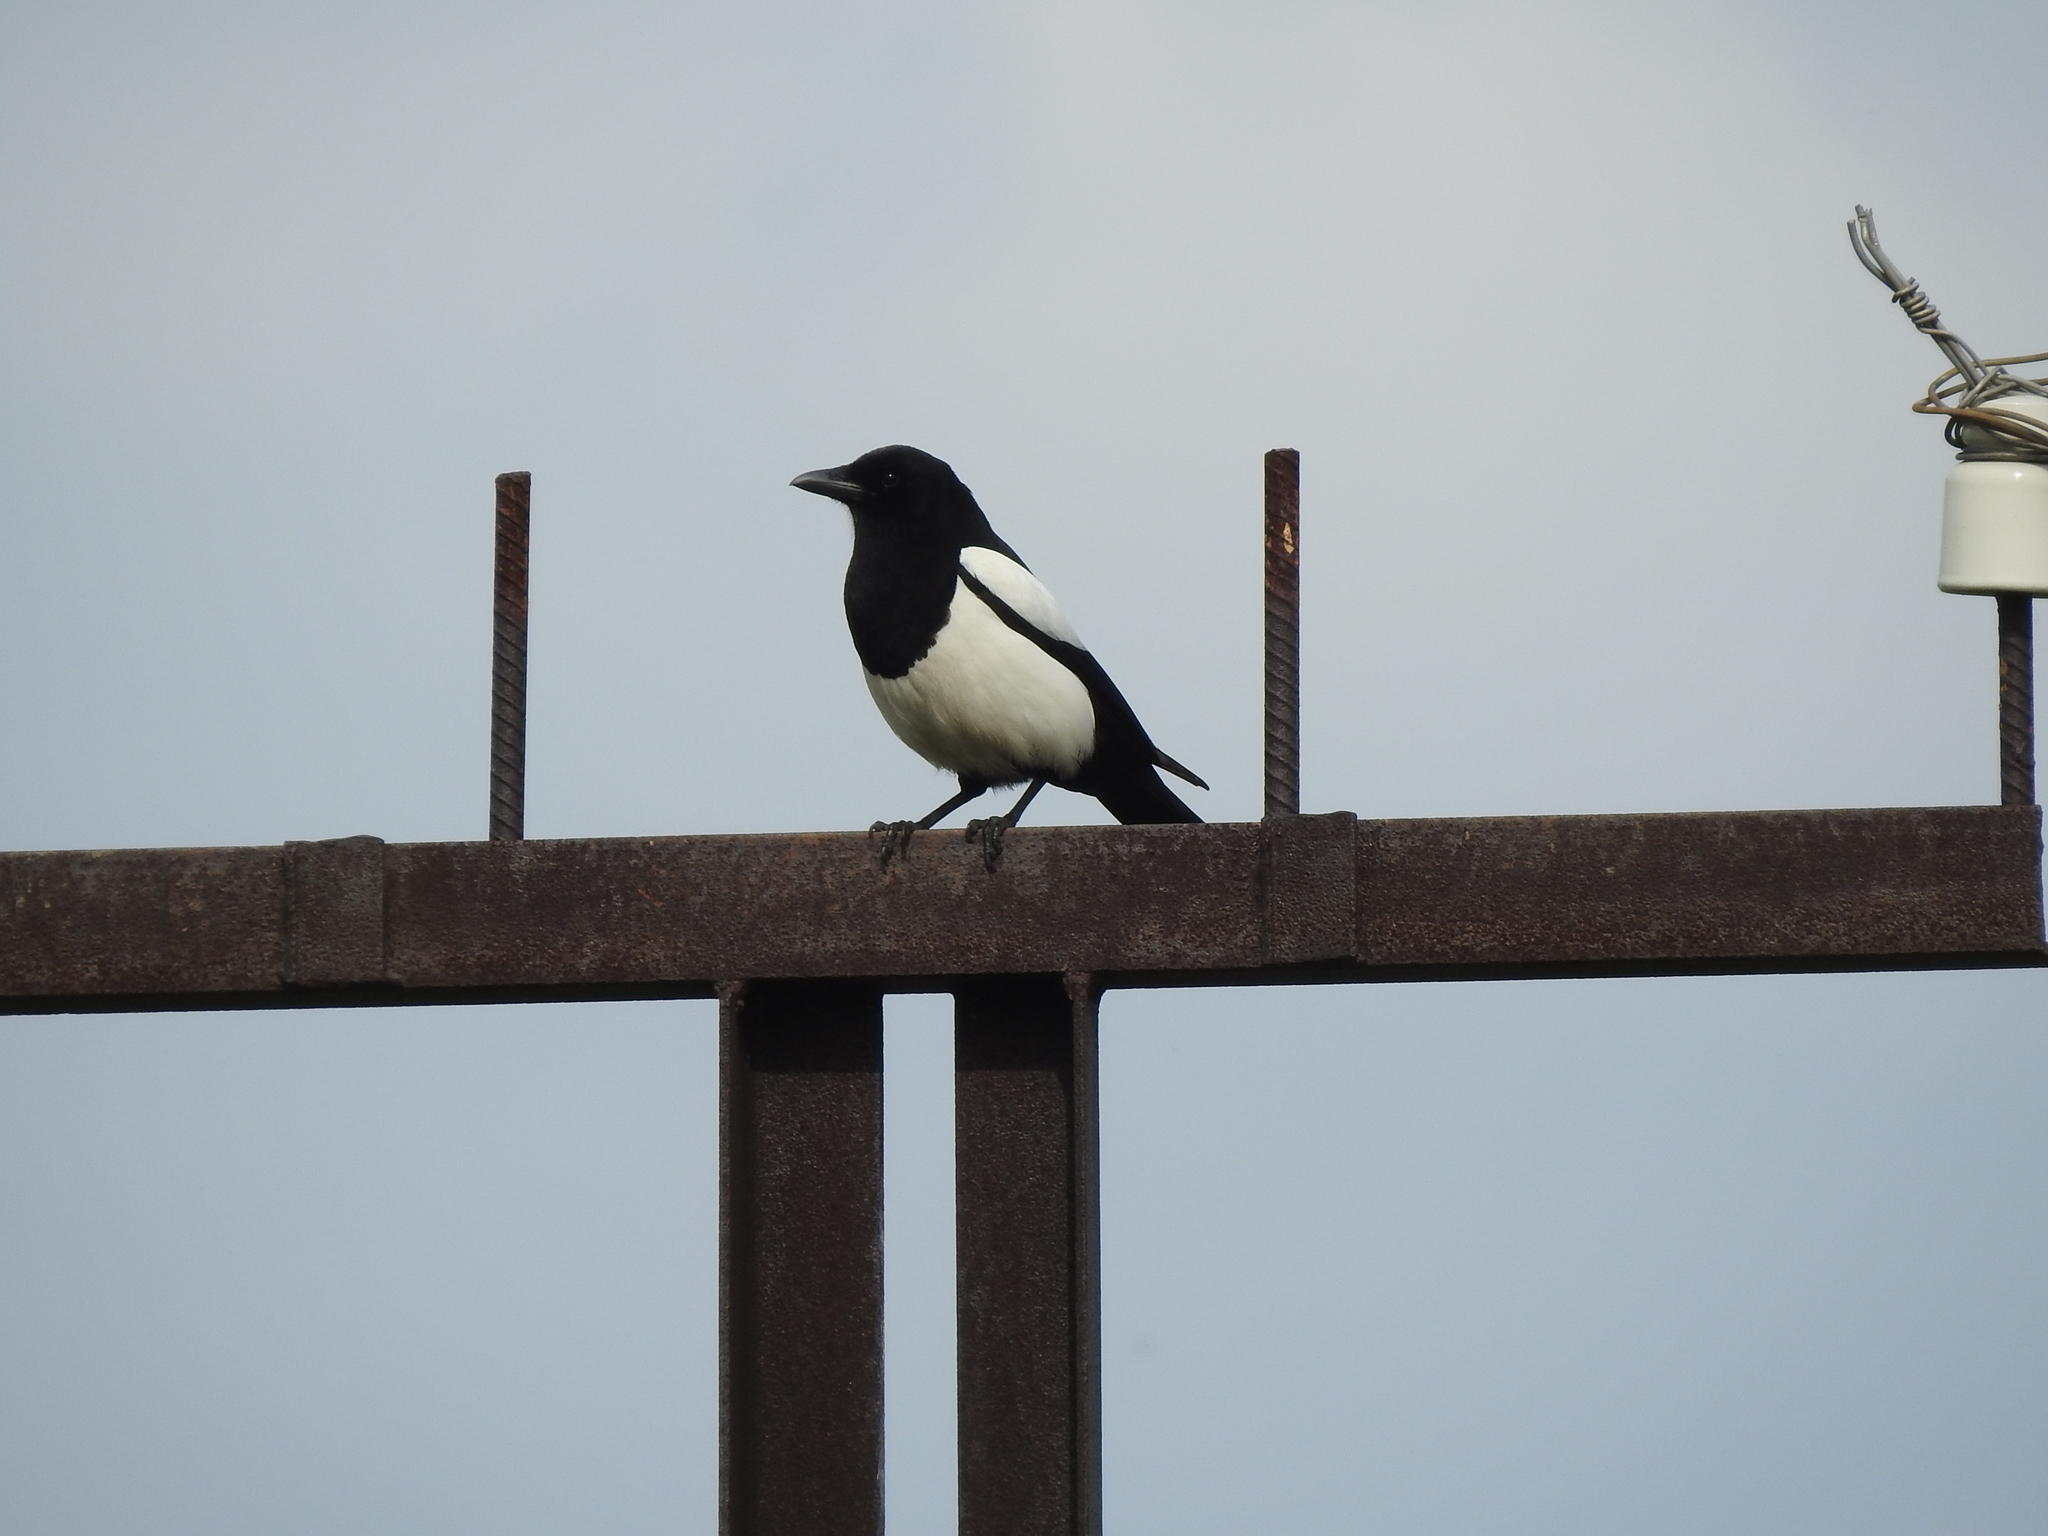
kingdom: Animalia
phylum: Chordata
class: Aves
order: Passeriformes
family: Corvidae
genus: Pica
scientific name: Pica pica
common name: Eurasian magpie
